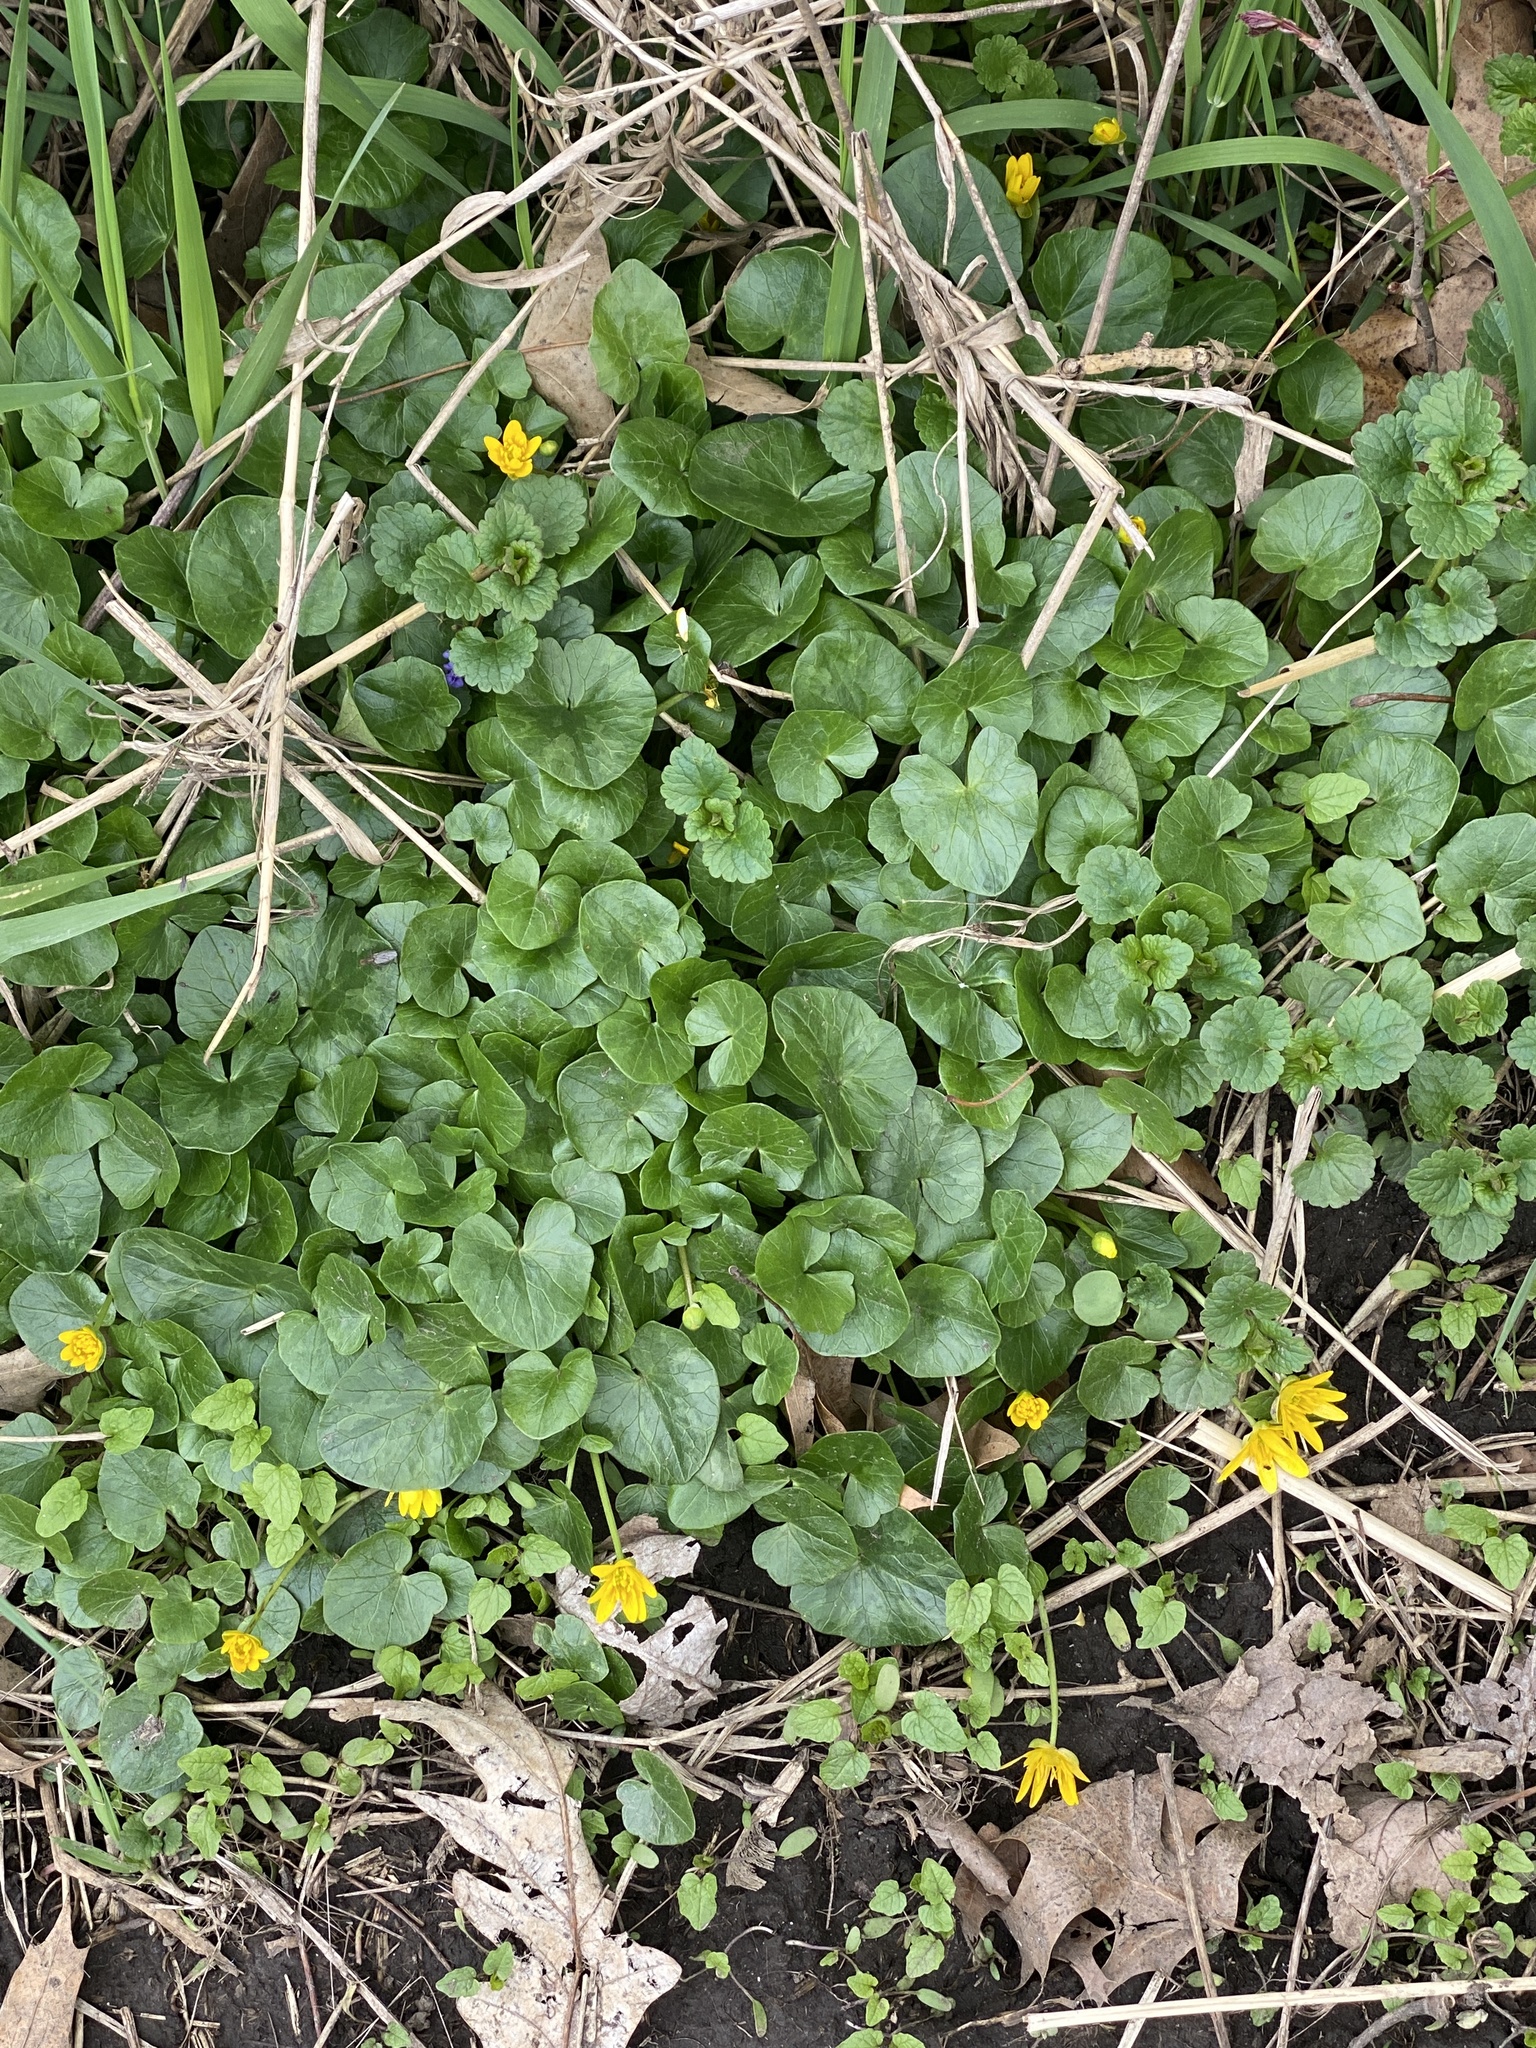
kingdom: Plantae
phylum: Tracheophyta
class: Magnoliopsida
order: Ranunculales
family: Ranunculaceae
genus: Ficaria
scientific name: Ficaria verna
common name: Lesser celandine
